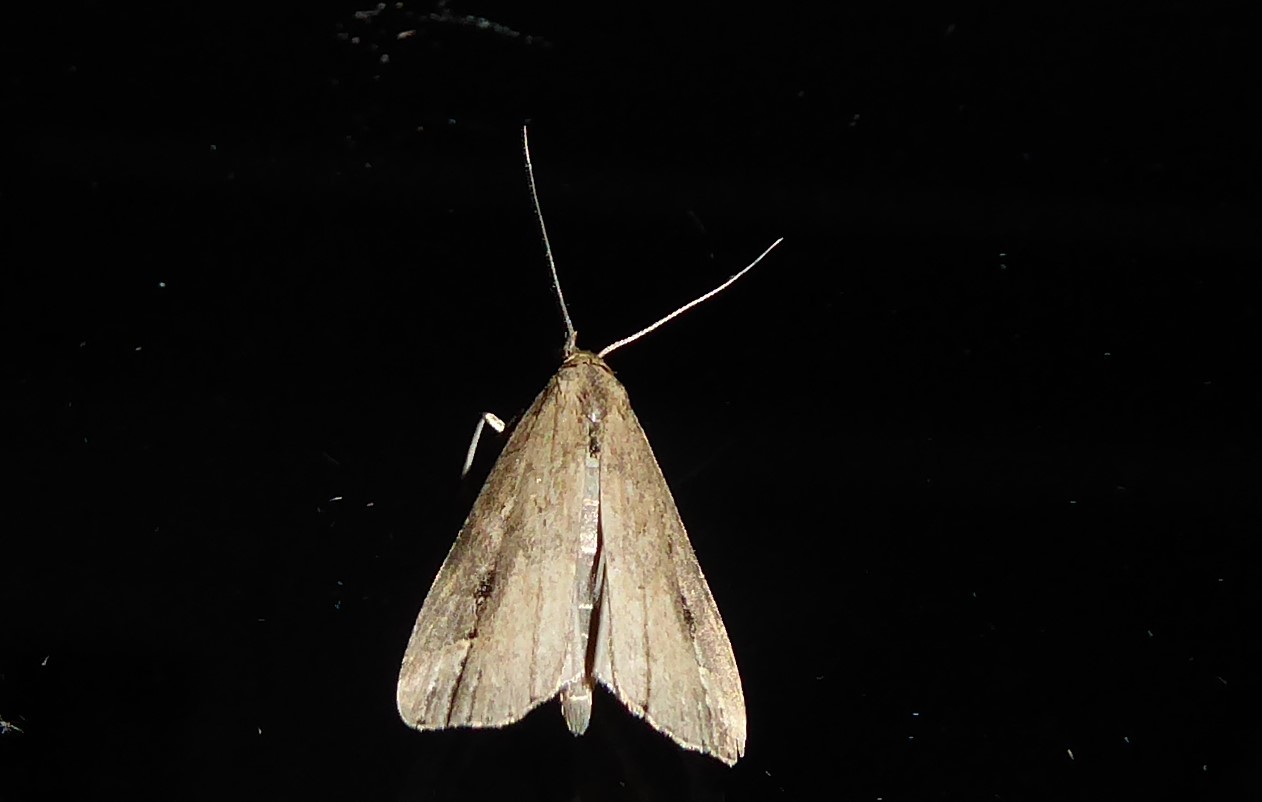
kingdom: Animalia
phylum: Arthropoda
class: Insecta
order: Lepidoptera
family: Erebidae
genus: Schrankia
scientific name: Schrankia costaestrigalis
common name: Pinion-streaked snout
